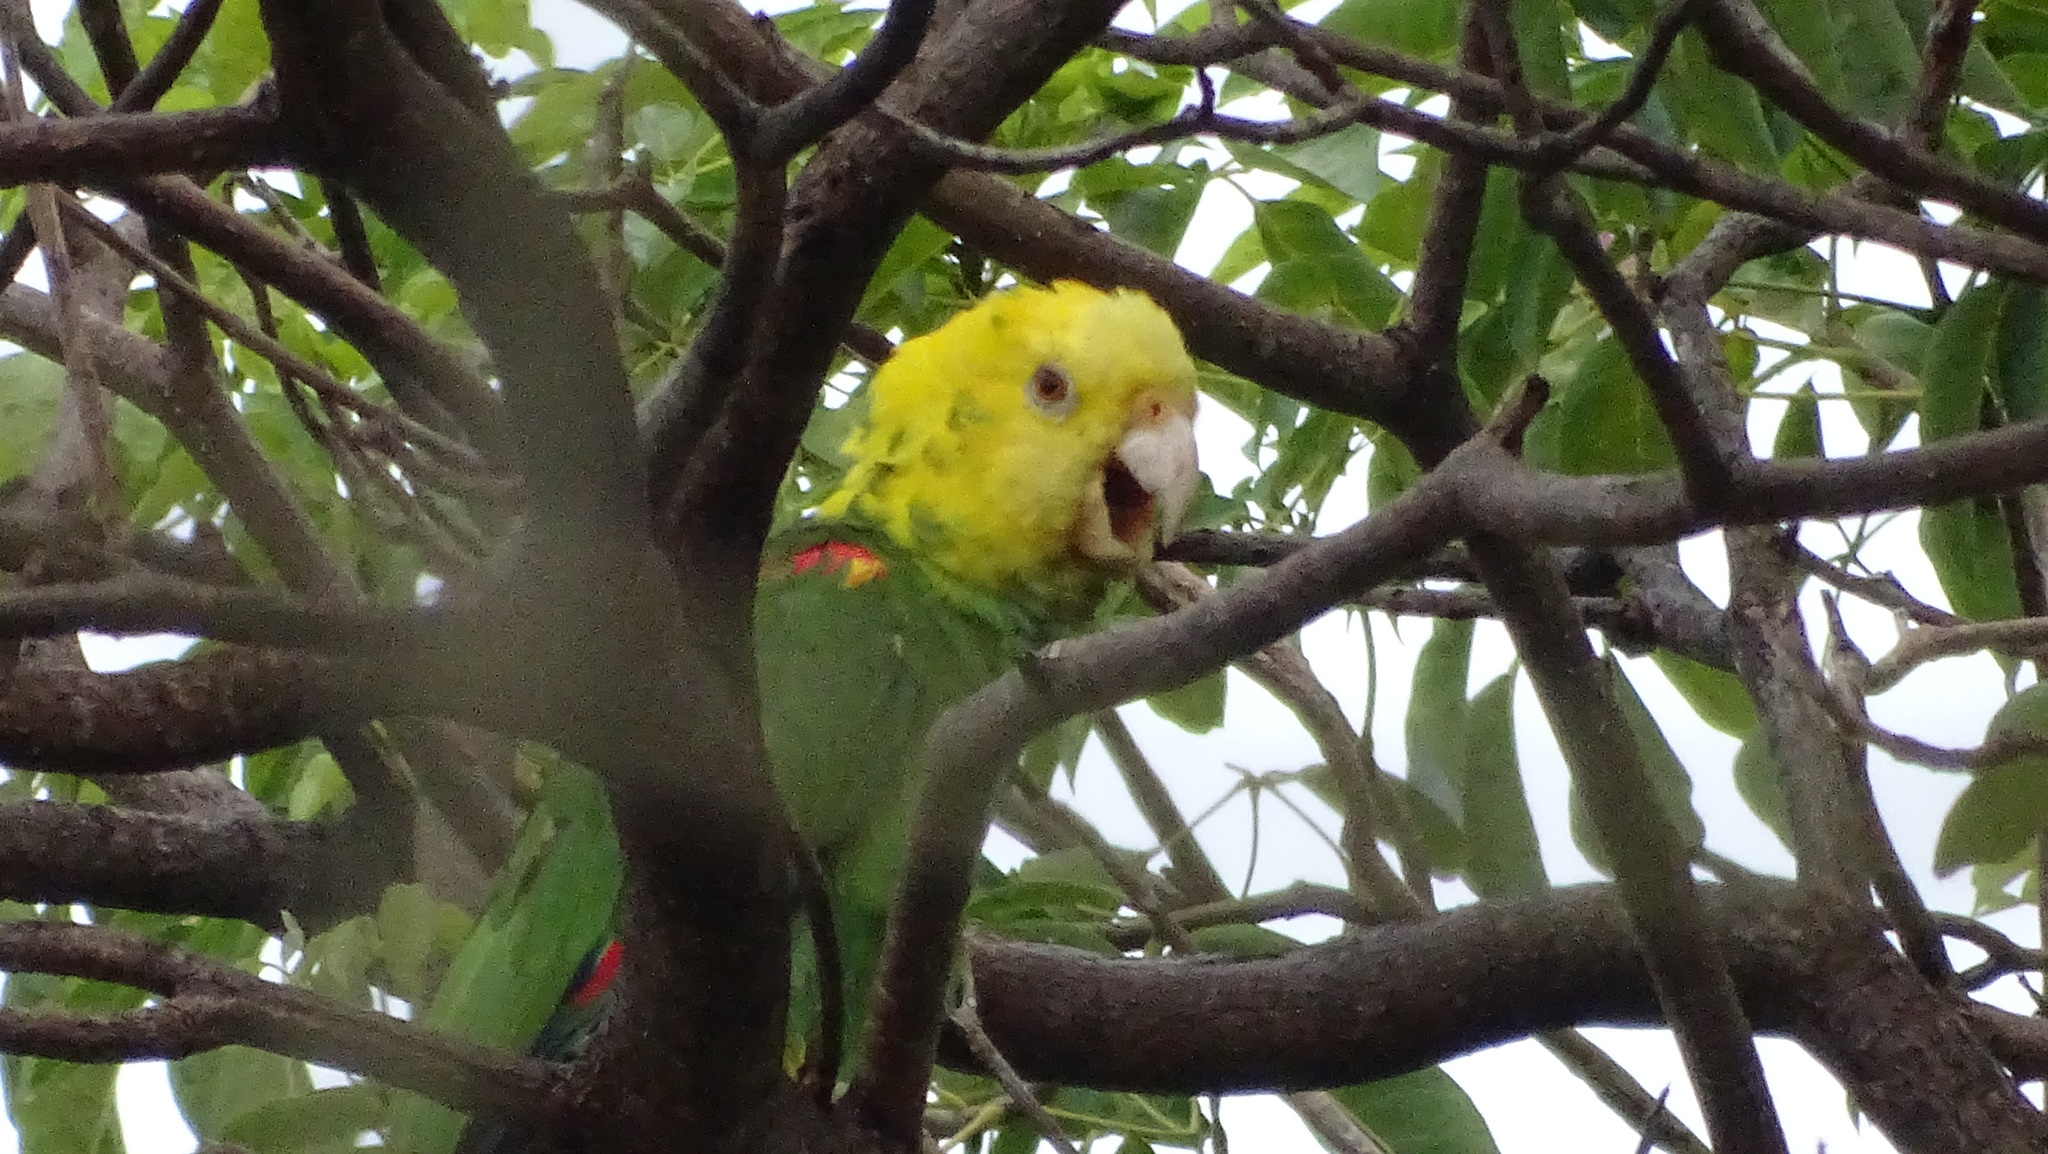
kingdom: Animalia
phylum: Chordata
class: Aves
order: Psittaciformes
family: Psittacidae
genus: Amazona
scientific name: Amazona oratrix
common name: Yellow-headed amazon
